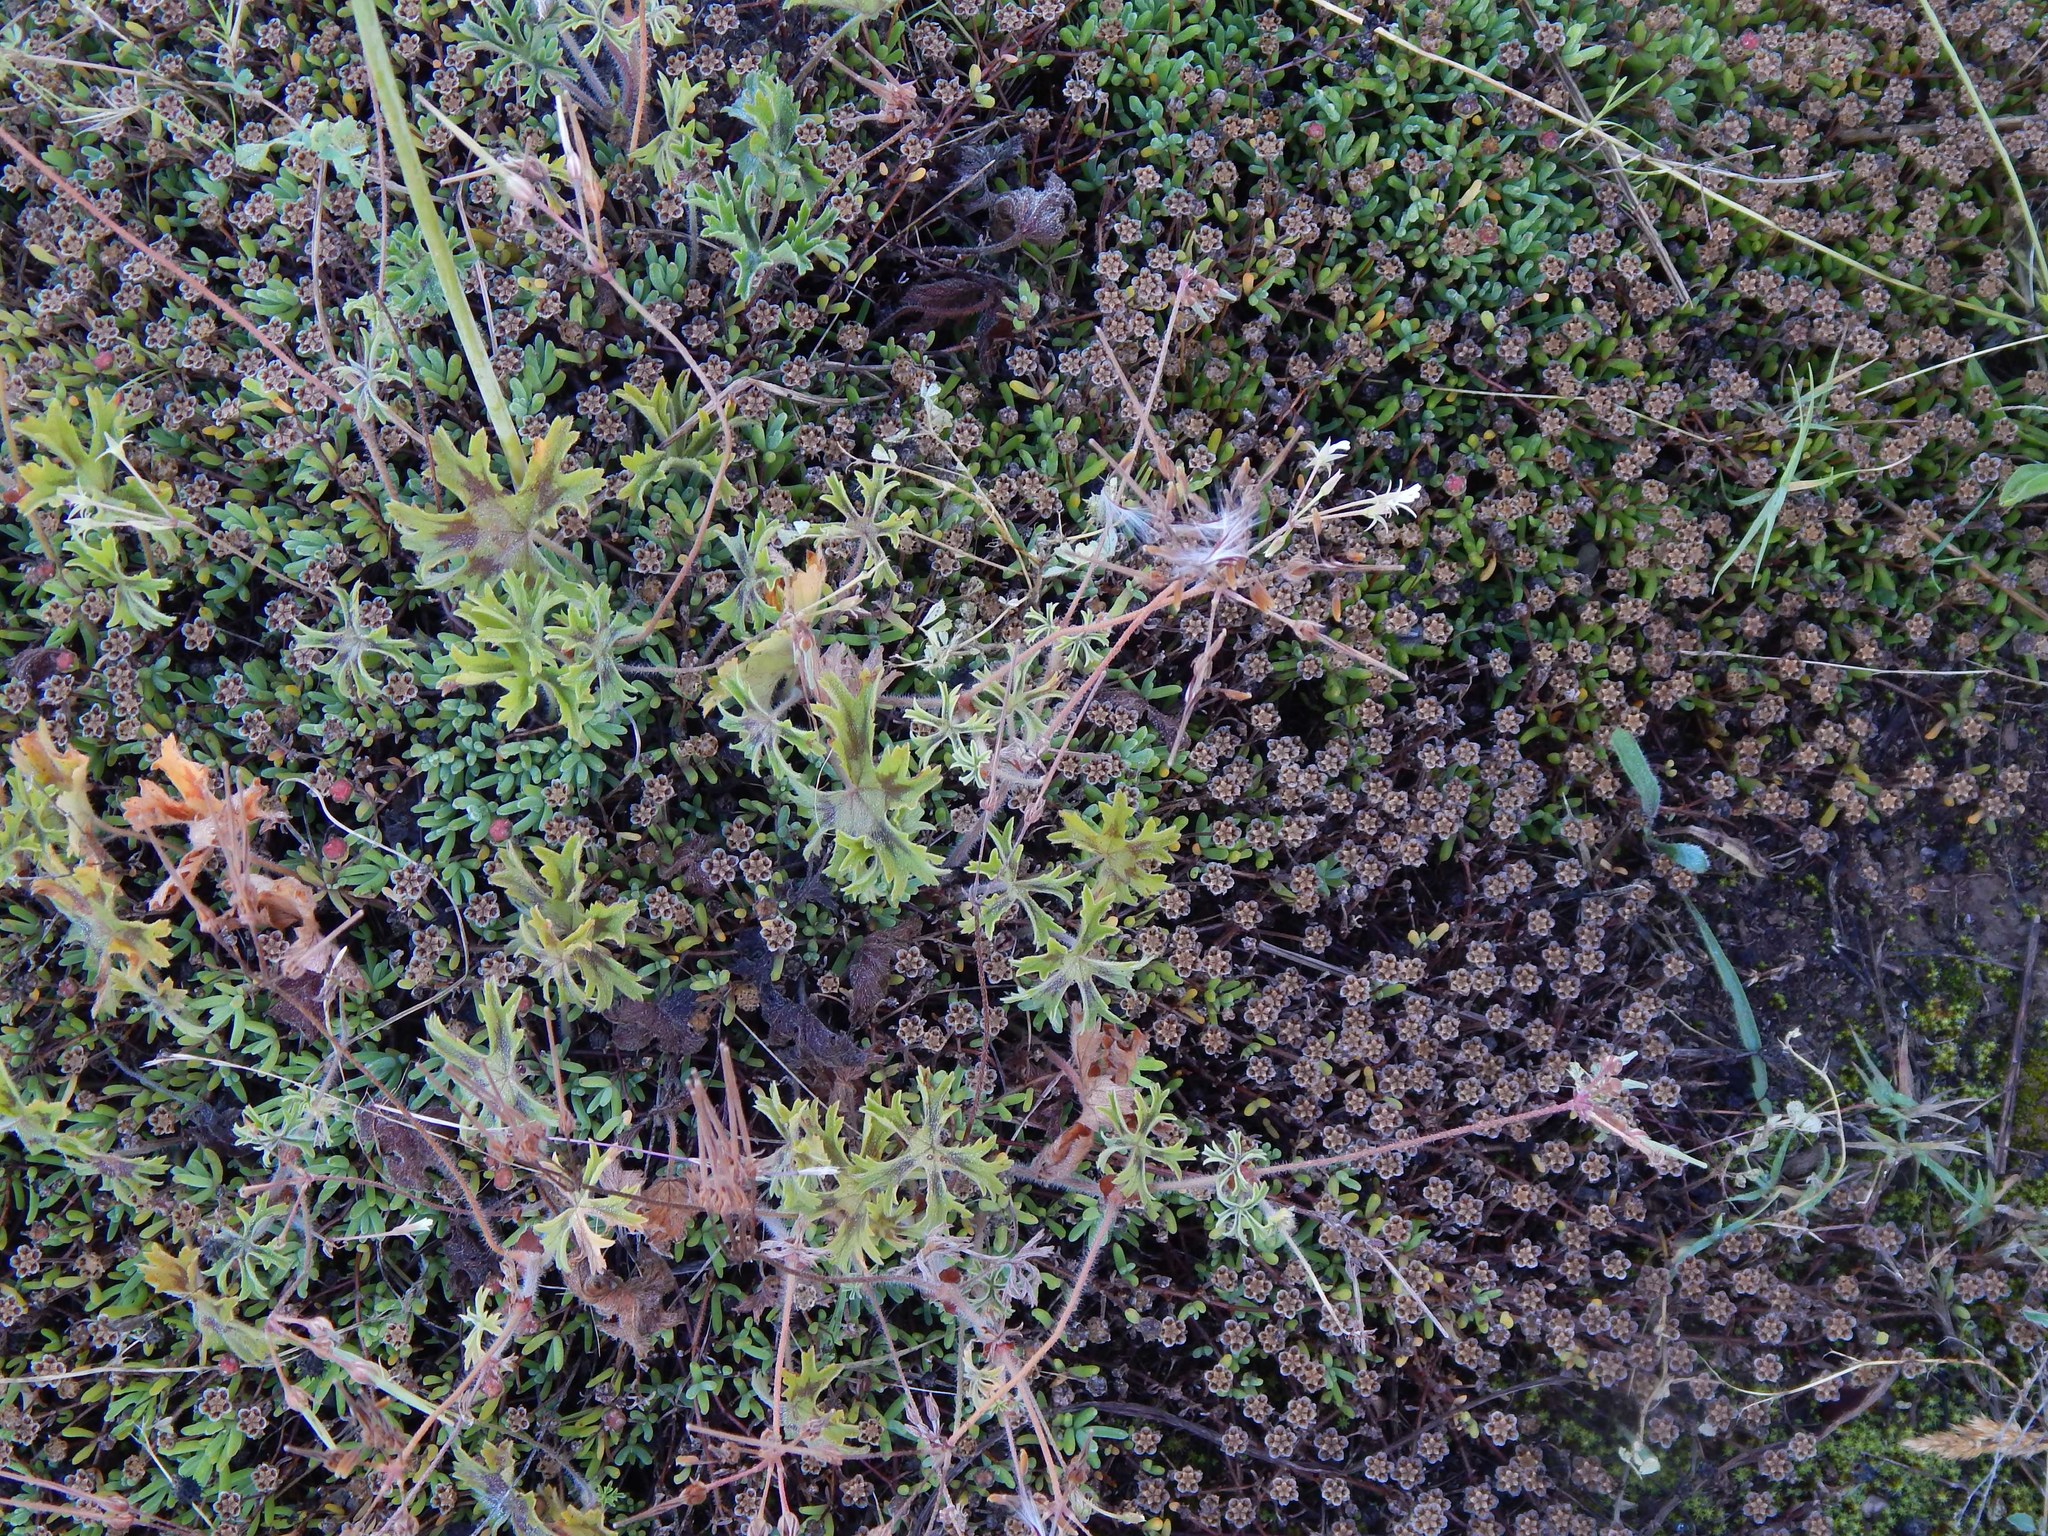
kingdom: Plantae
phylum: Tracheophyta
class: Magnoliopsida
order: Geraniales
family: Geraniaceae
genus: Pelargonium
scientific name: Pelargonium alchemilloides
